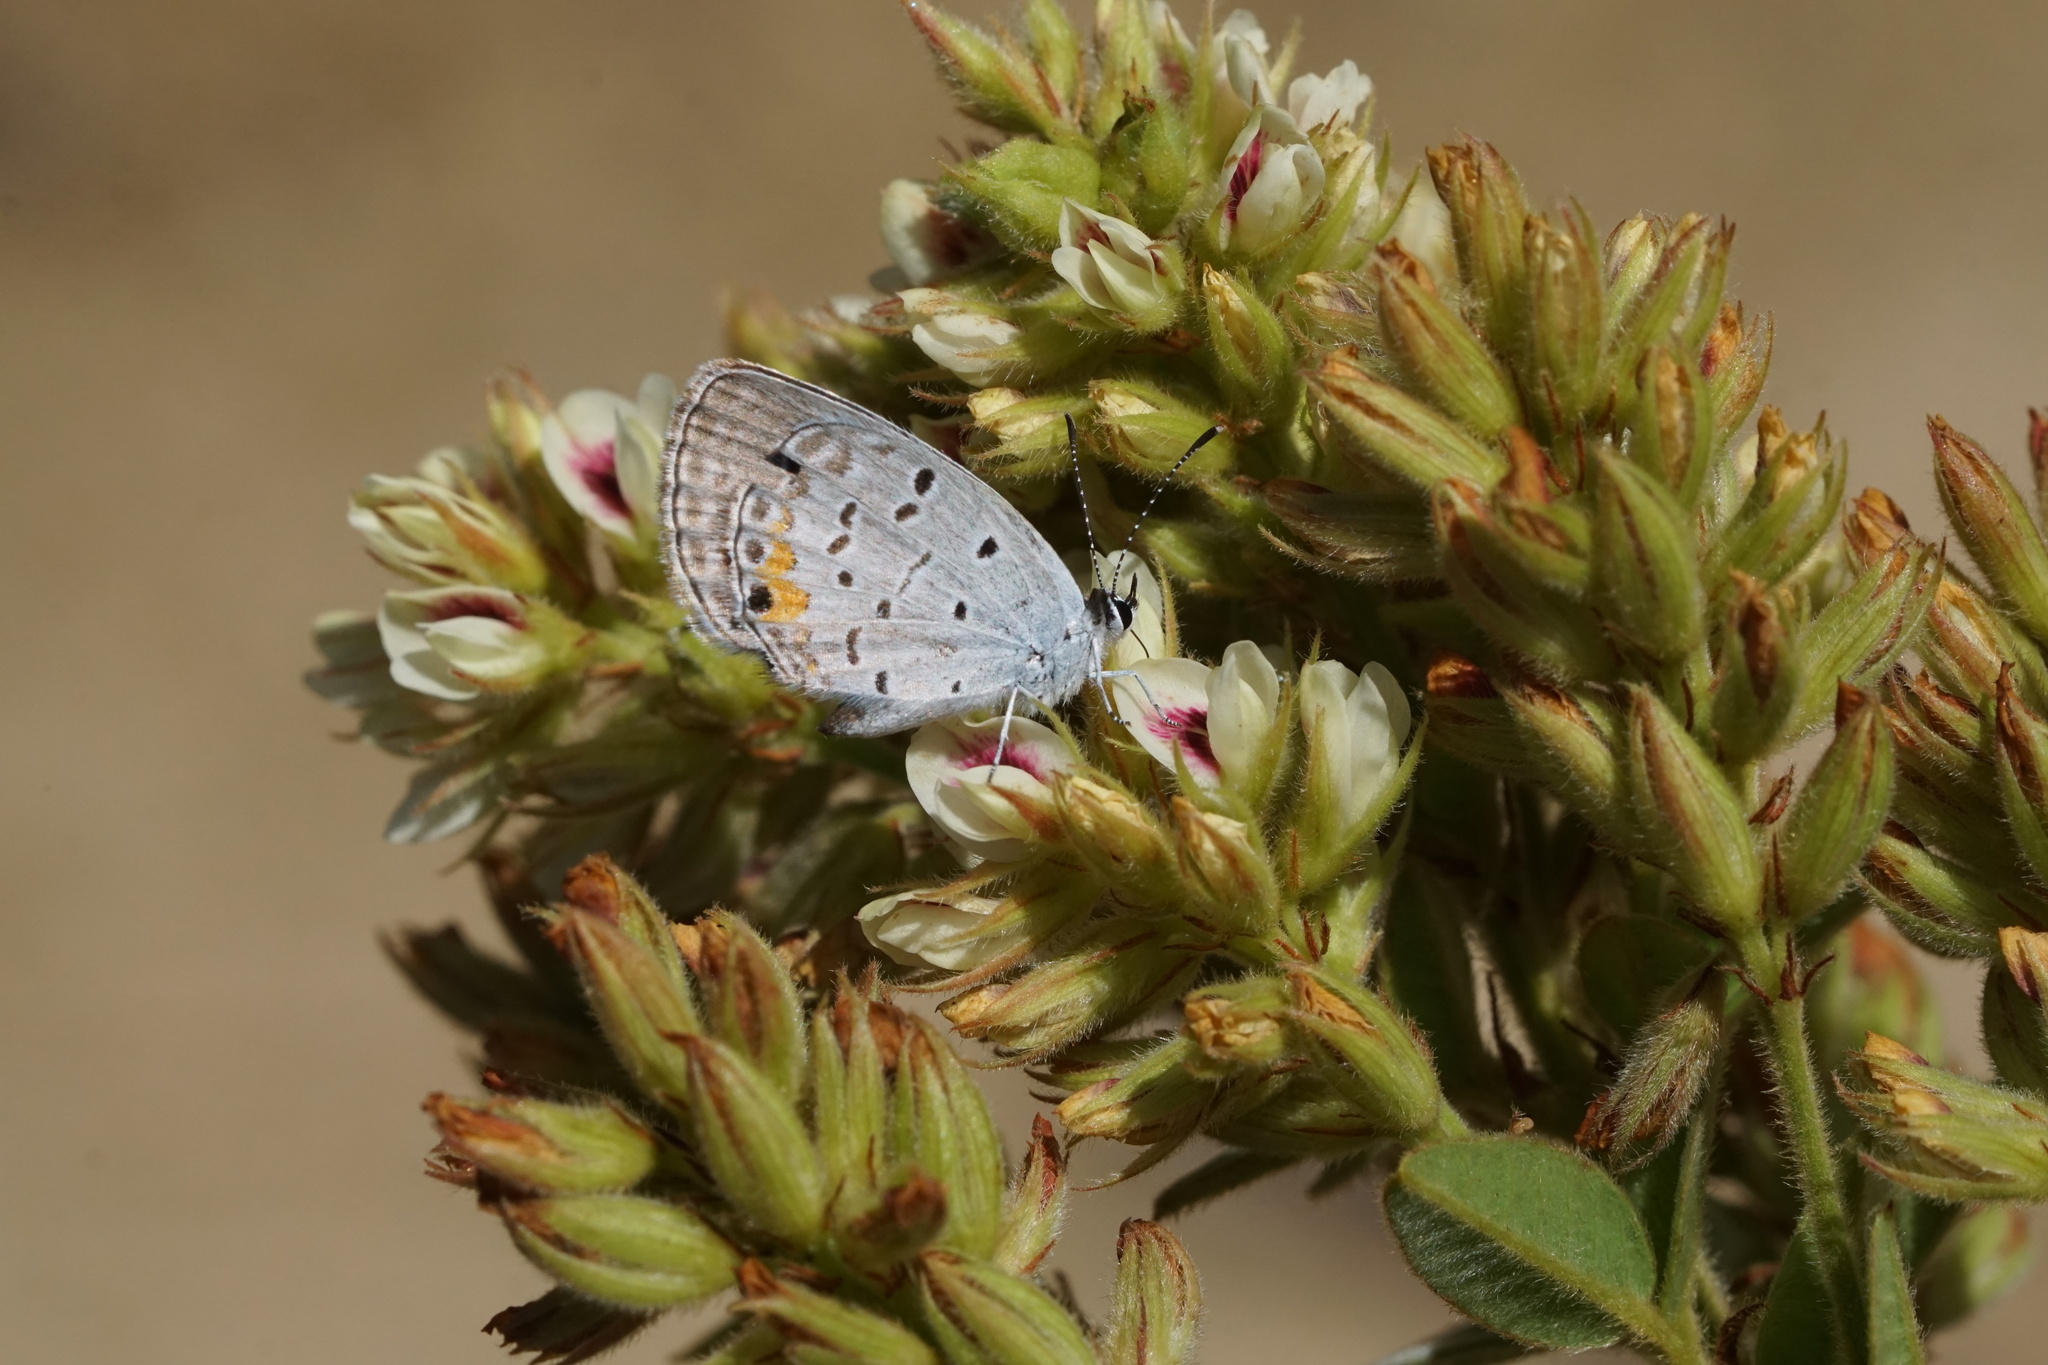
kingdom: Animalia
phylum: Arthropoda
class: Insecta
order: Lepidoptera
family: Lycaenidae
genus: Elkalyce
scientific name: Elkalyce comyntas
